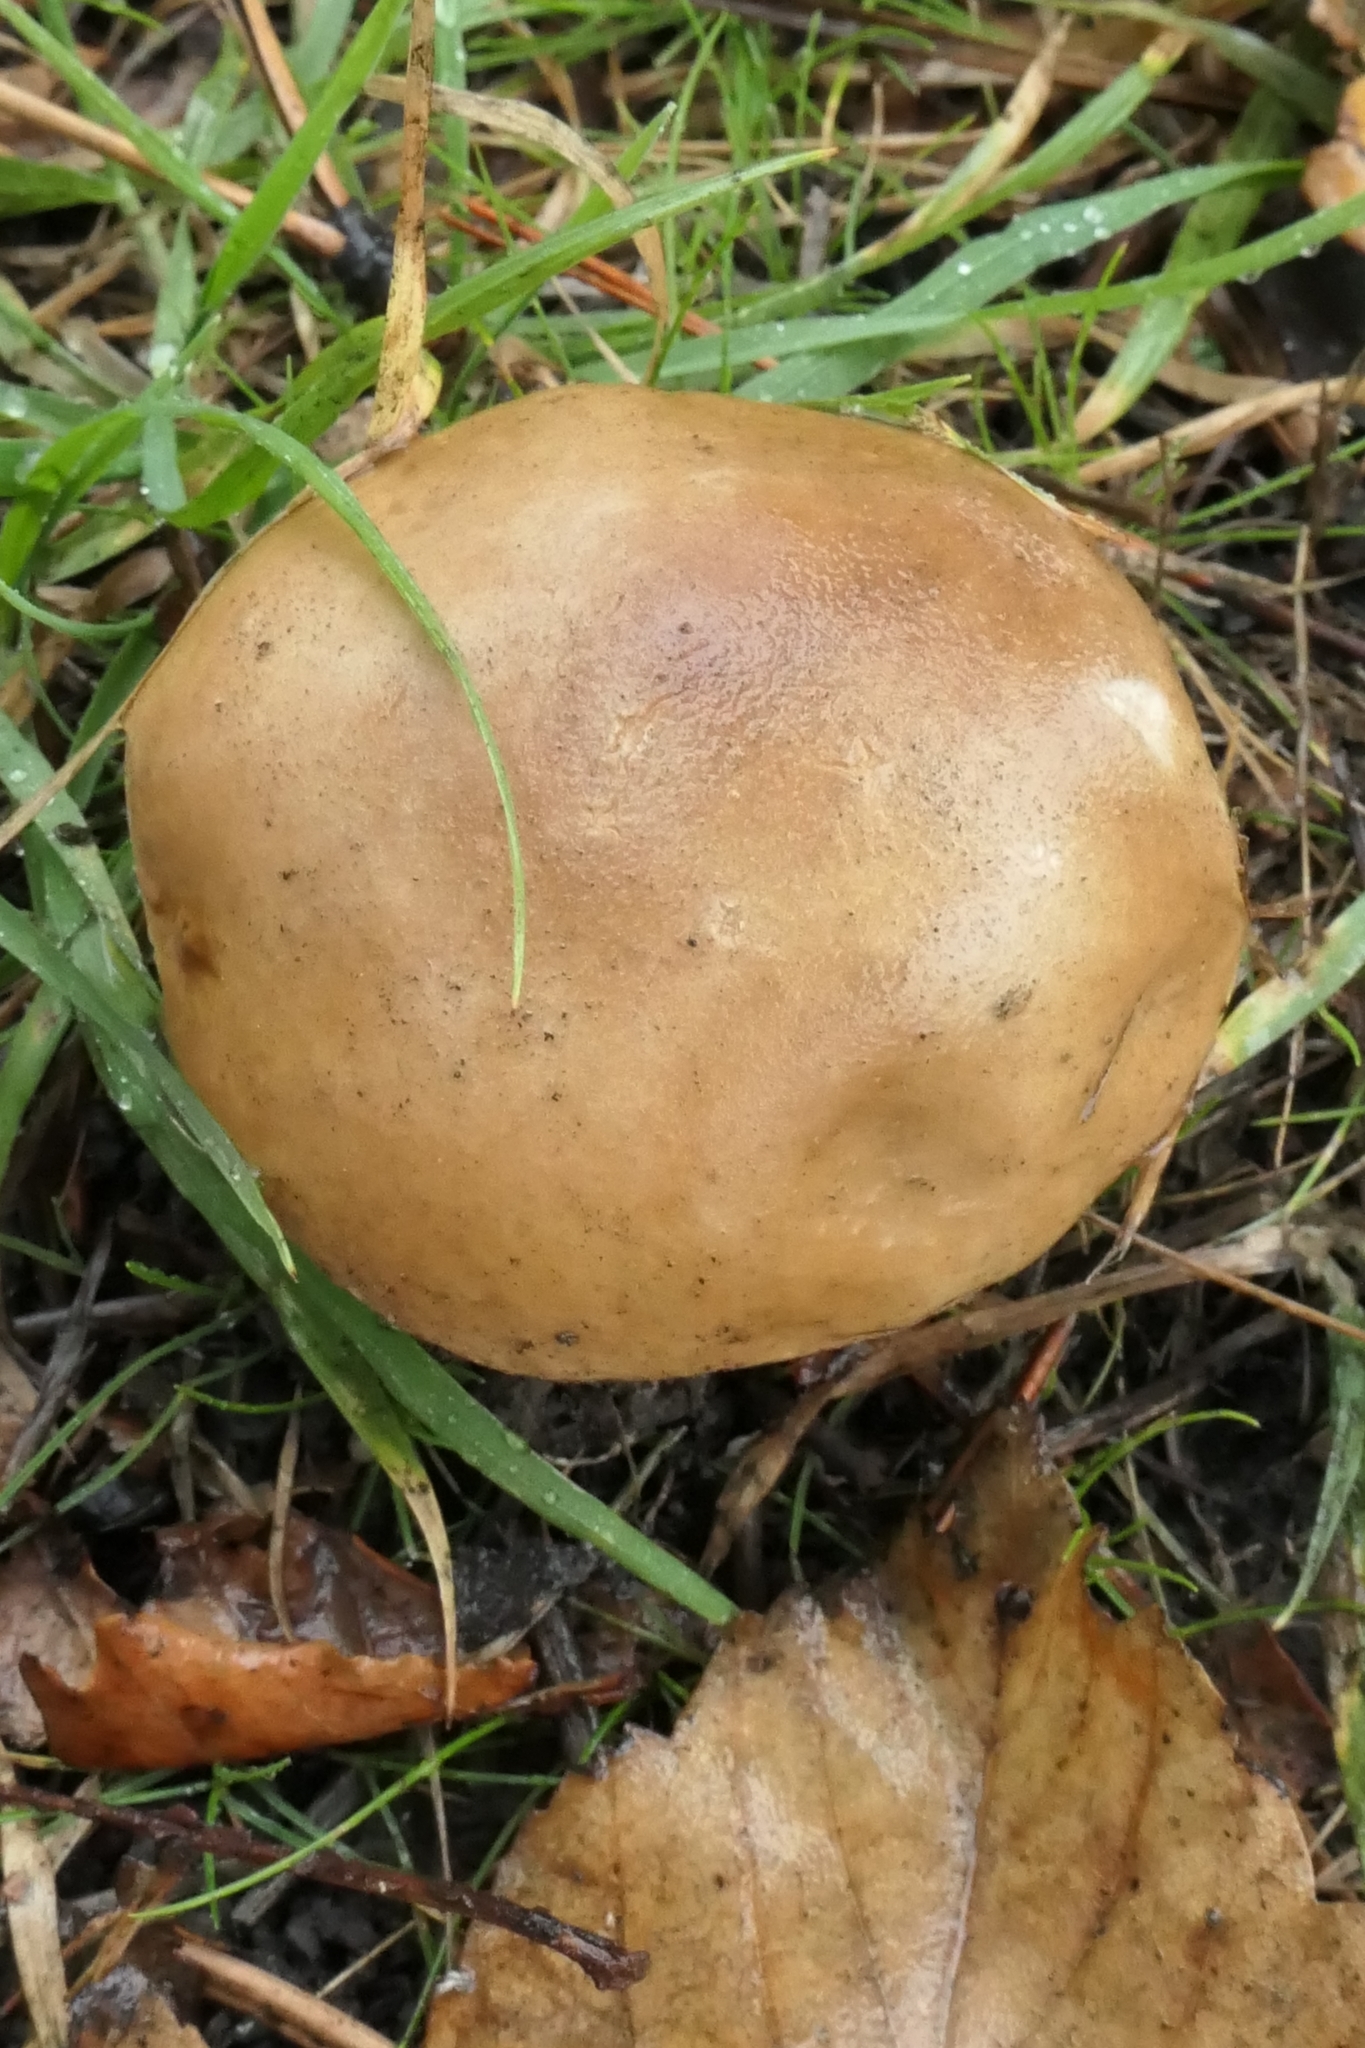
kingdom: Fungi
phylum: Basidiomycota
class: Agaricomycetes
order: Boletales
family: Boletaceae
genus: Boletus
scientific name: Boletus edulis
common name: Cep
